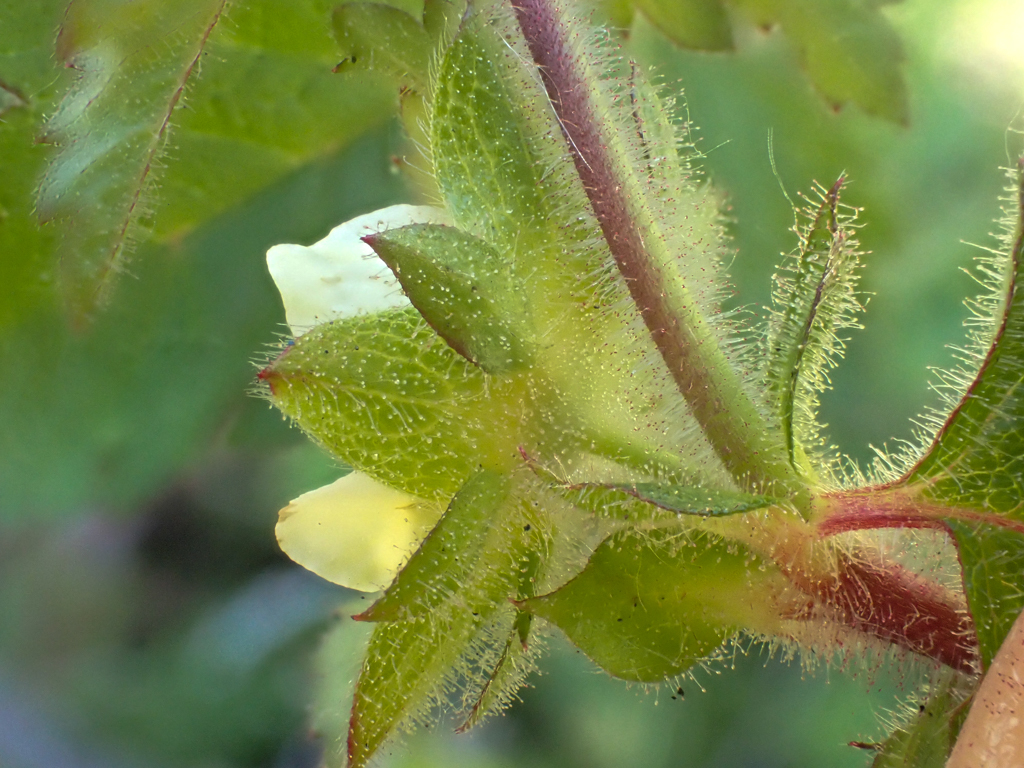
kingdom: Plantae
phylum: Tracheophyta
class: Magnoliopsida
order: Rosales
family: Rosaceae
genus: Drymocallis
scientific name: Drymocallis glandulosa
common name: Sticky cinquefoil
